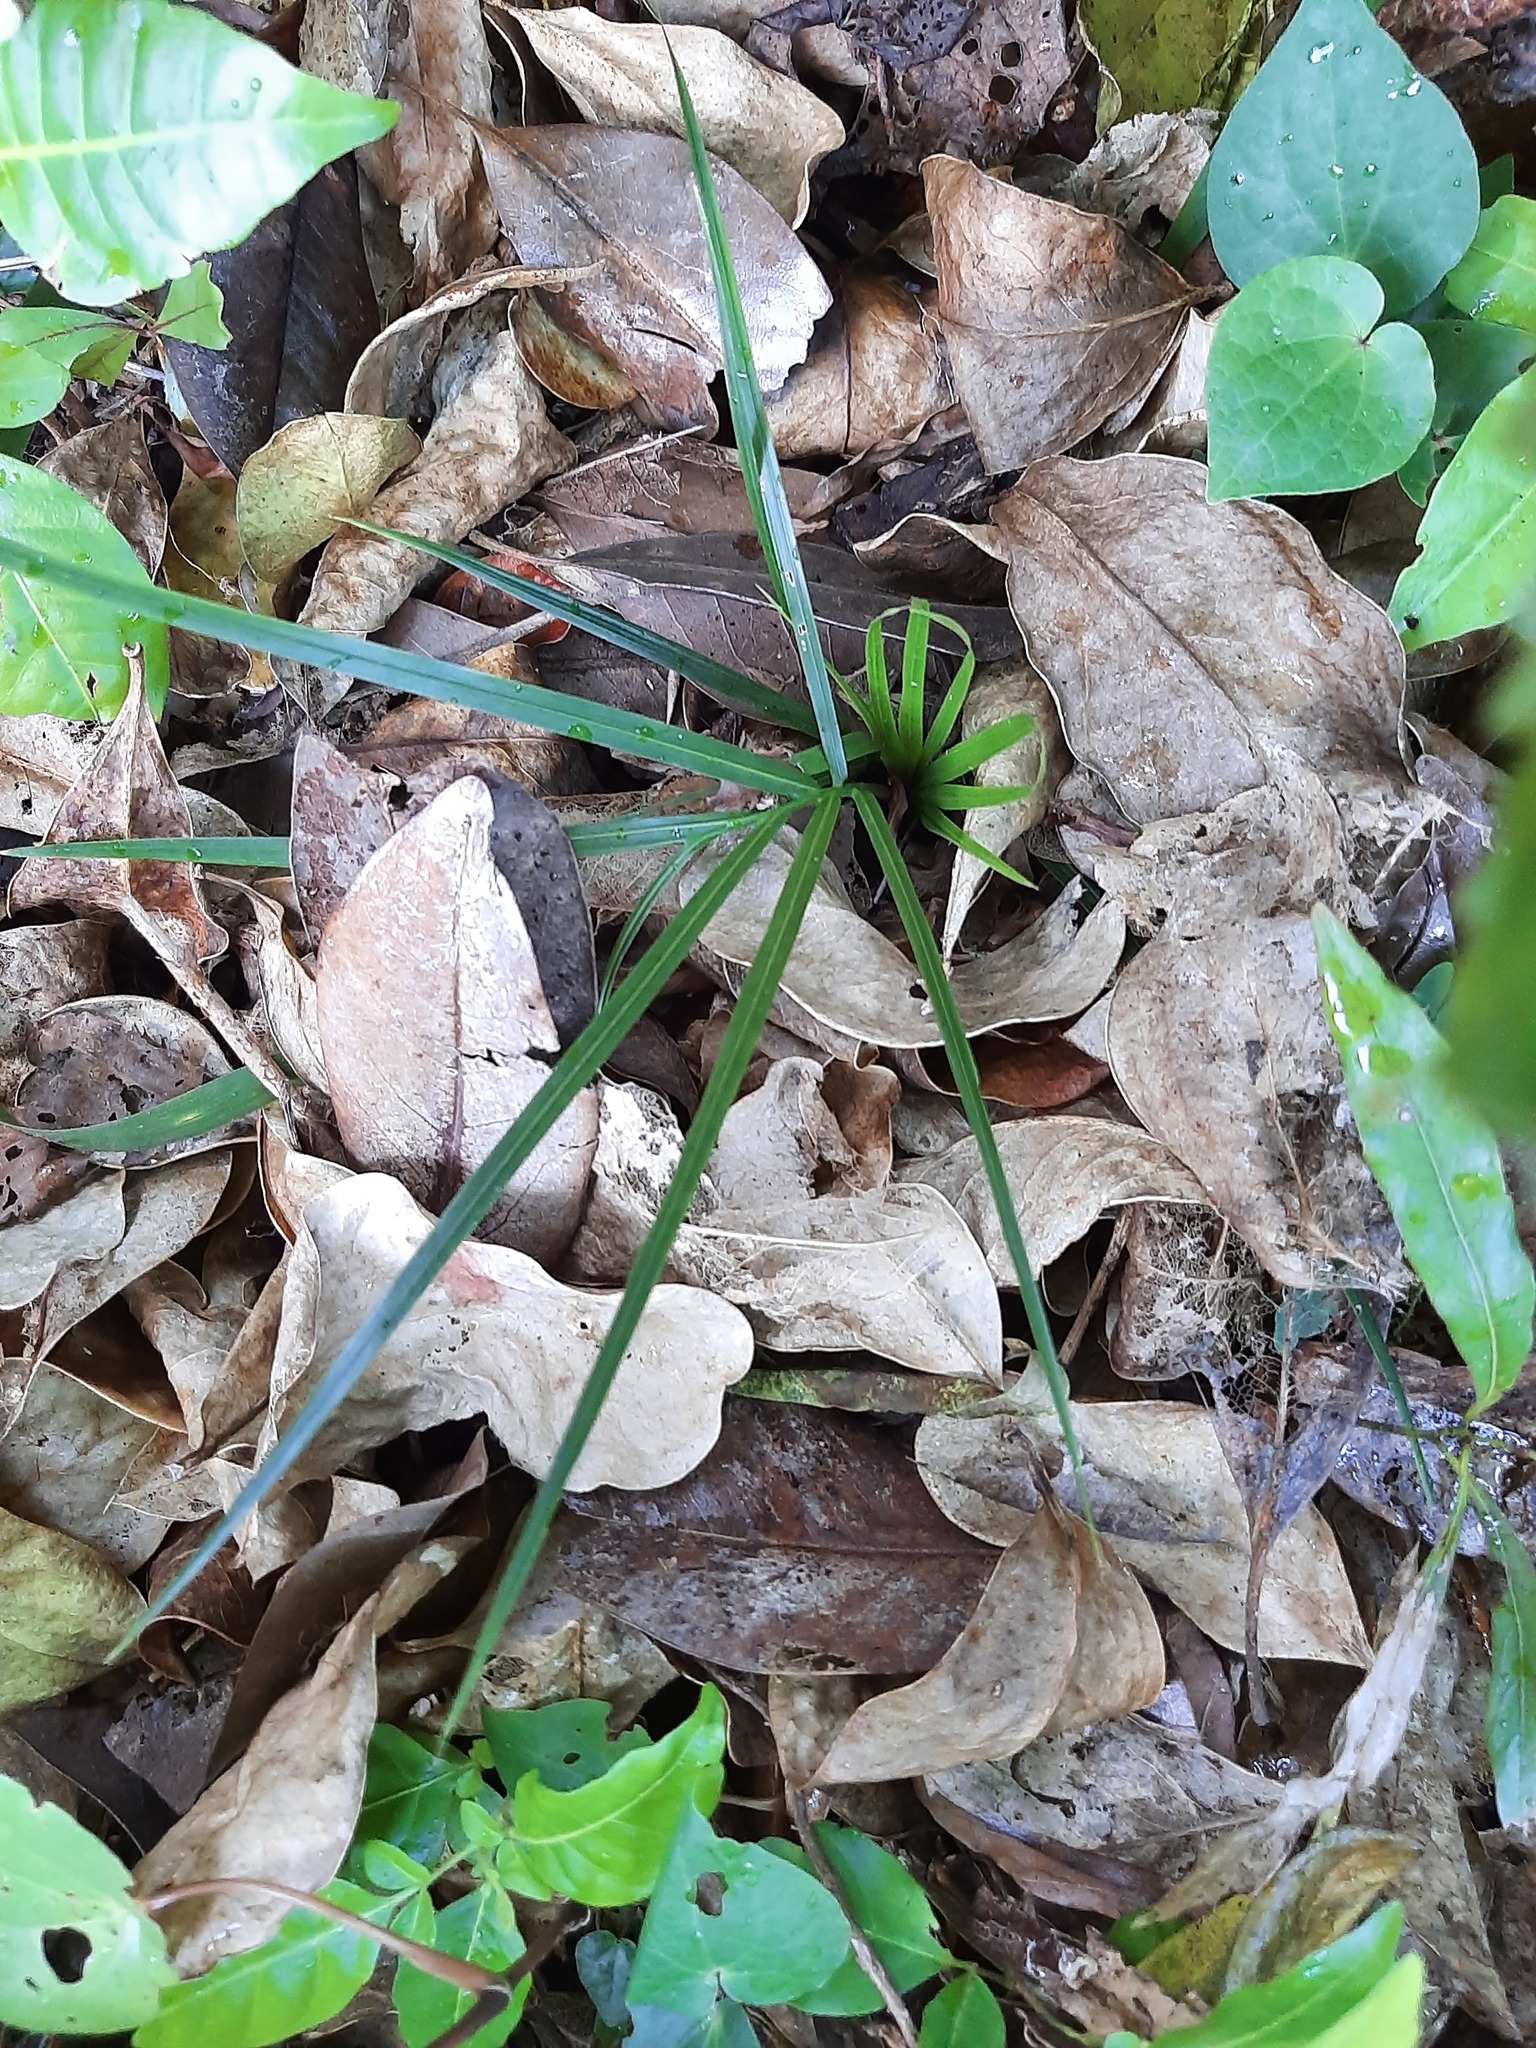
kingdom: Plantae
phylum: Tracheophyta
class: Liliopsida
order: Arecales
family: Arecaceae
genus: Rhopalostylis
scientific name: Rhopalostylis sapida
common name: Feather-duster palm
